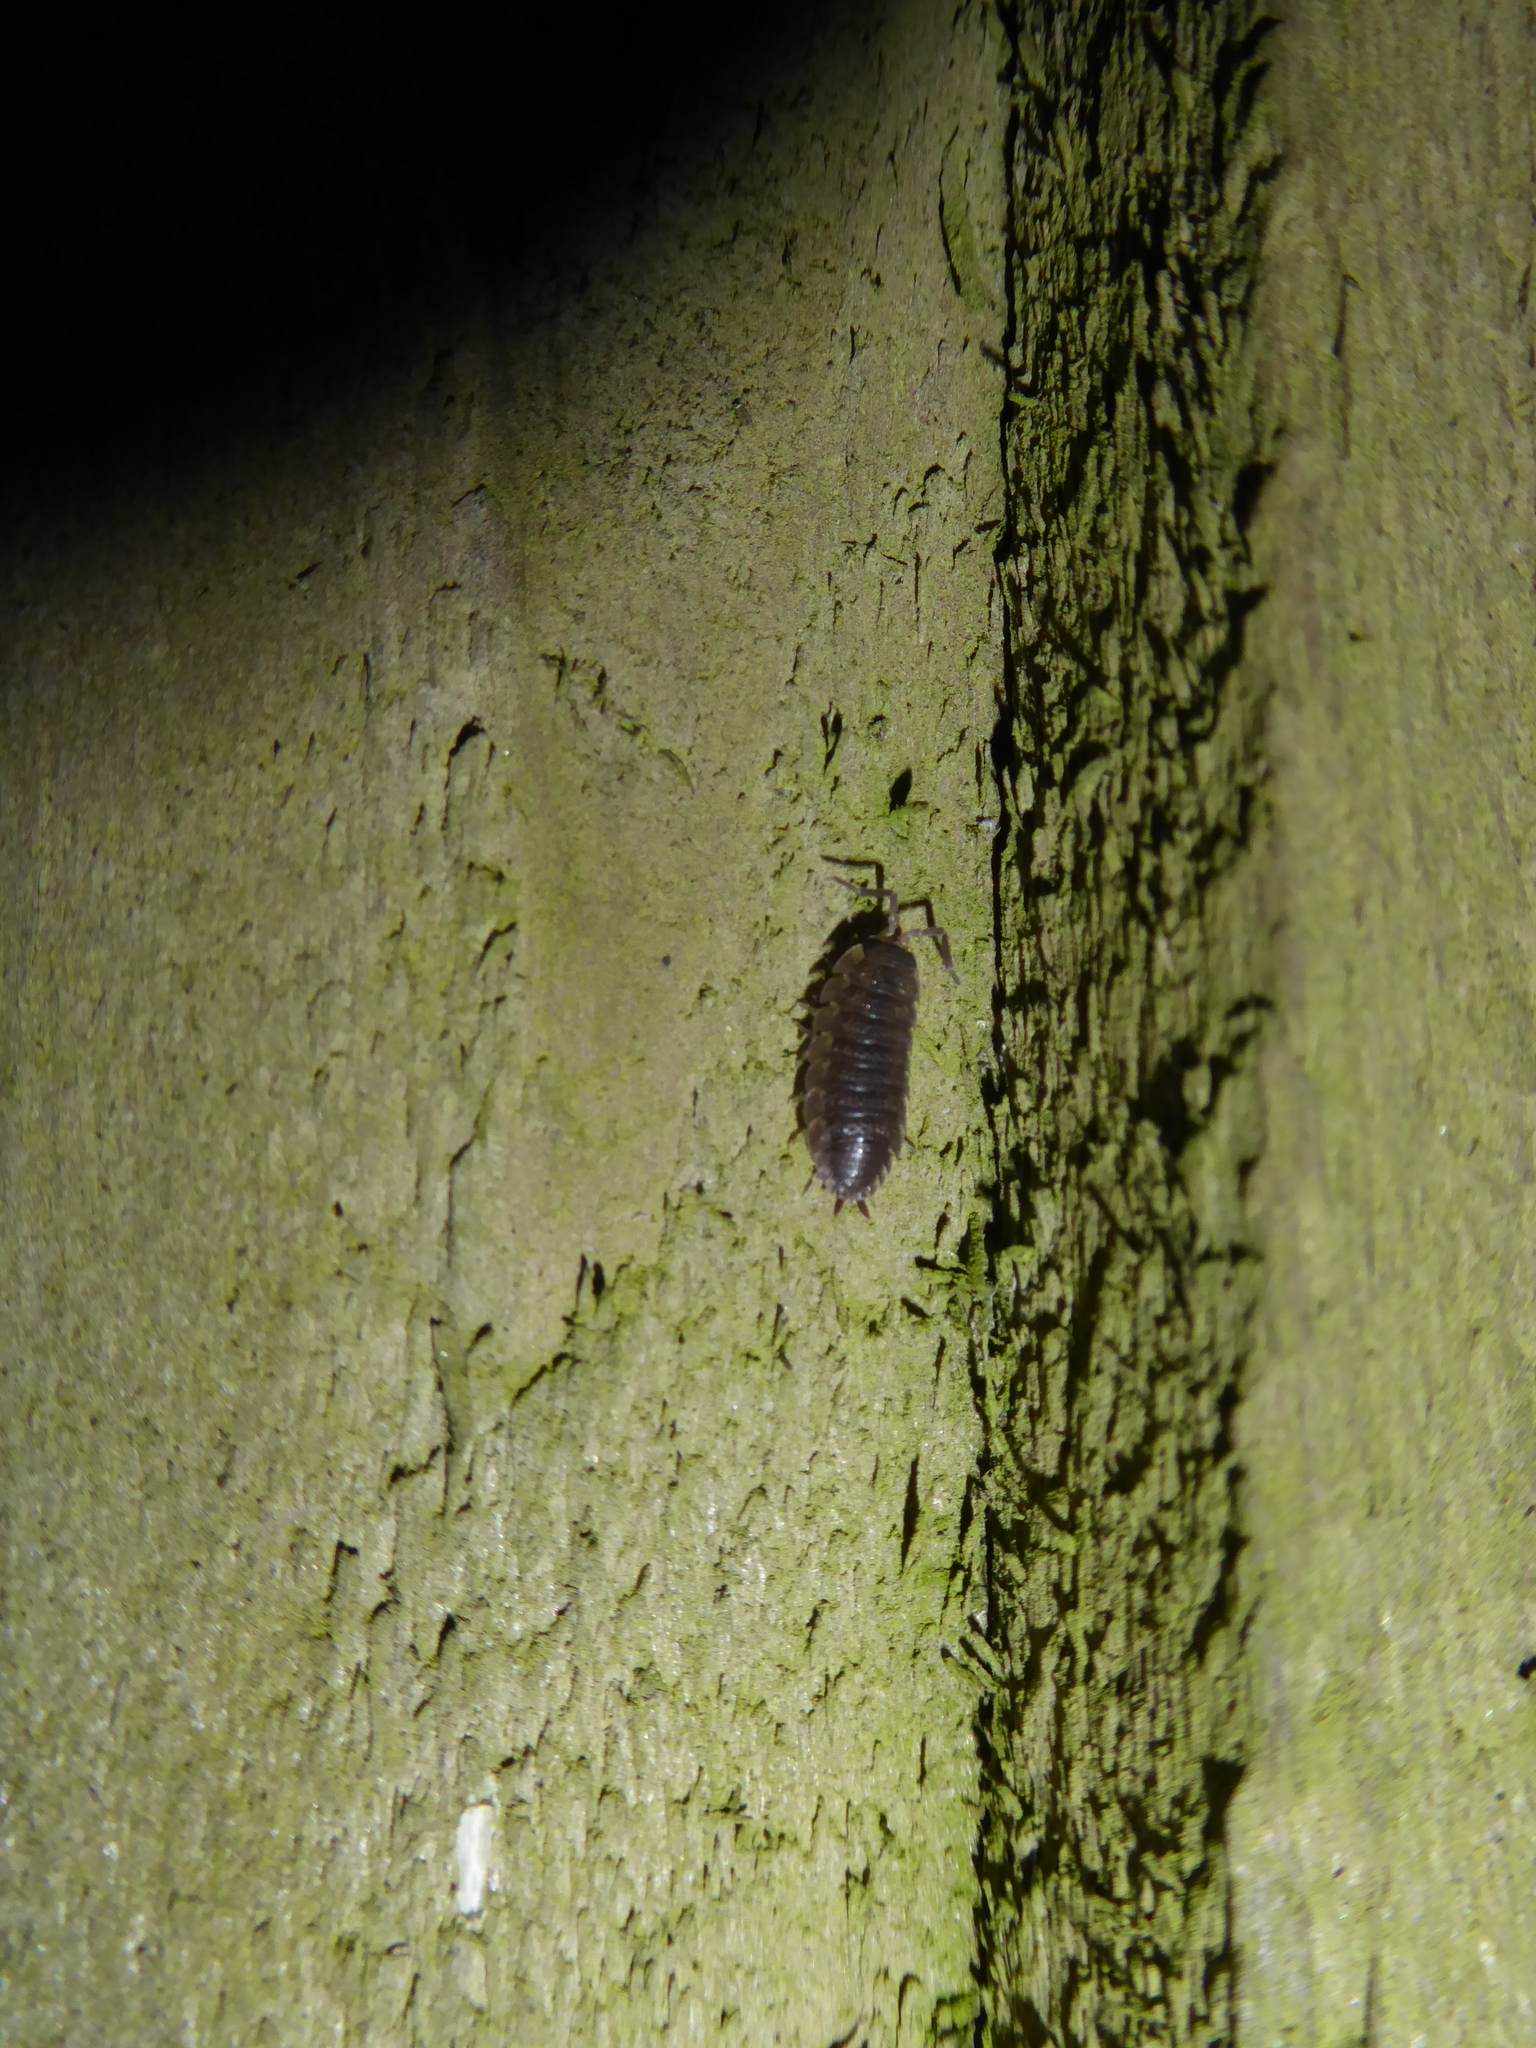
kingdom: Animalia
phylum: Arthropoda
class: Malacostraca
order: Isopoda
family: Porcellionidae
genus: Porcellio
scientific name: Porcellio scaber
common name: Common rough woodlouse
